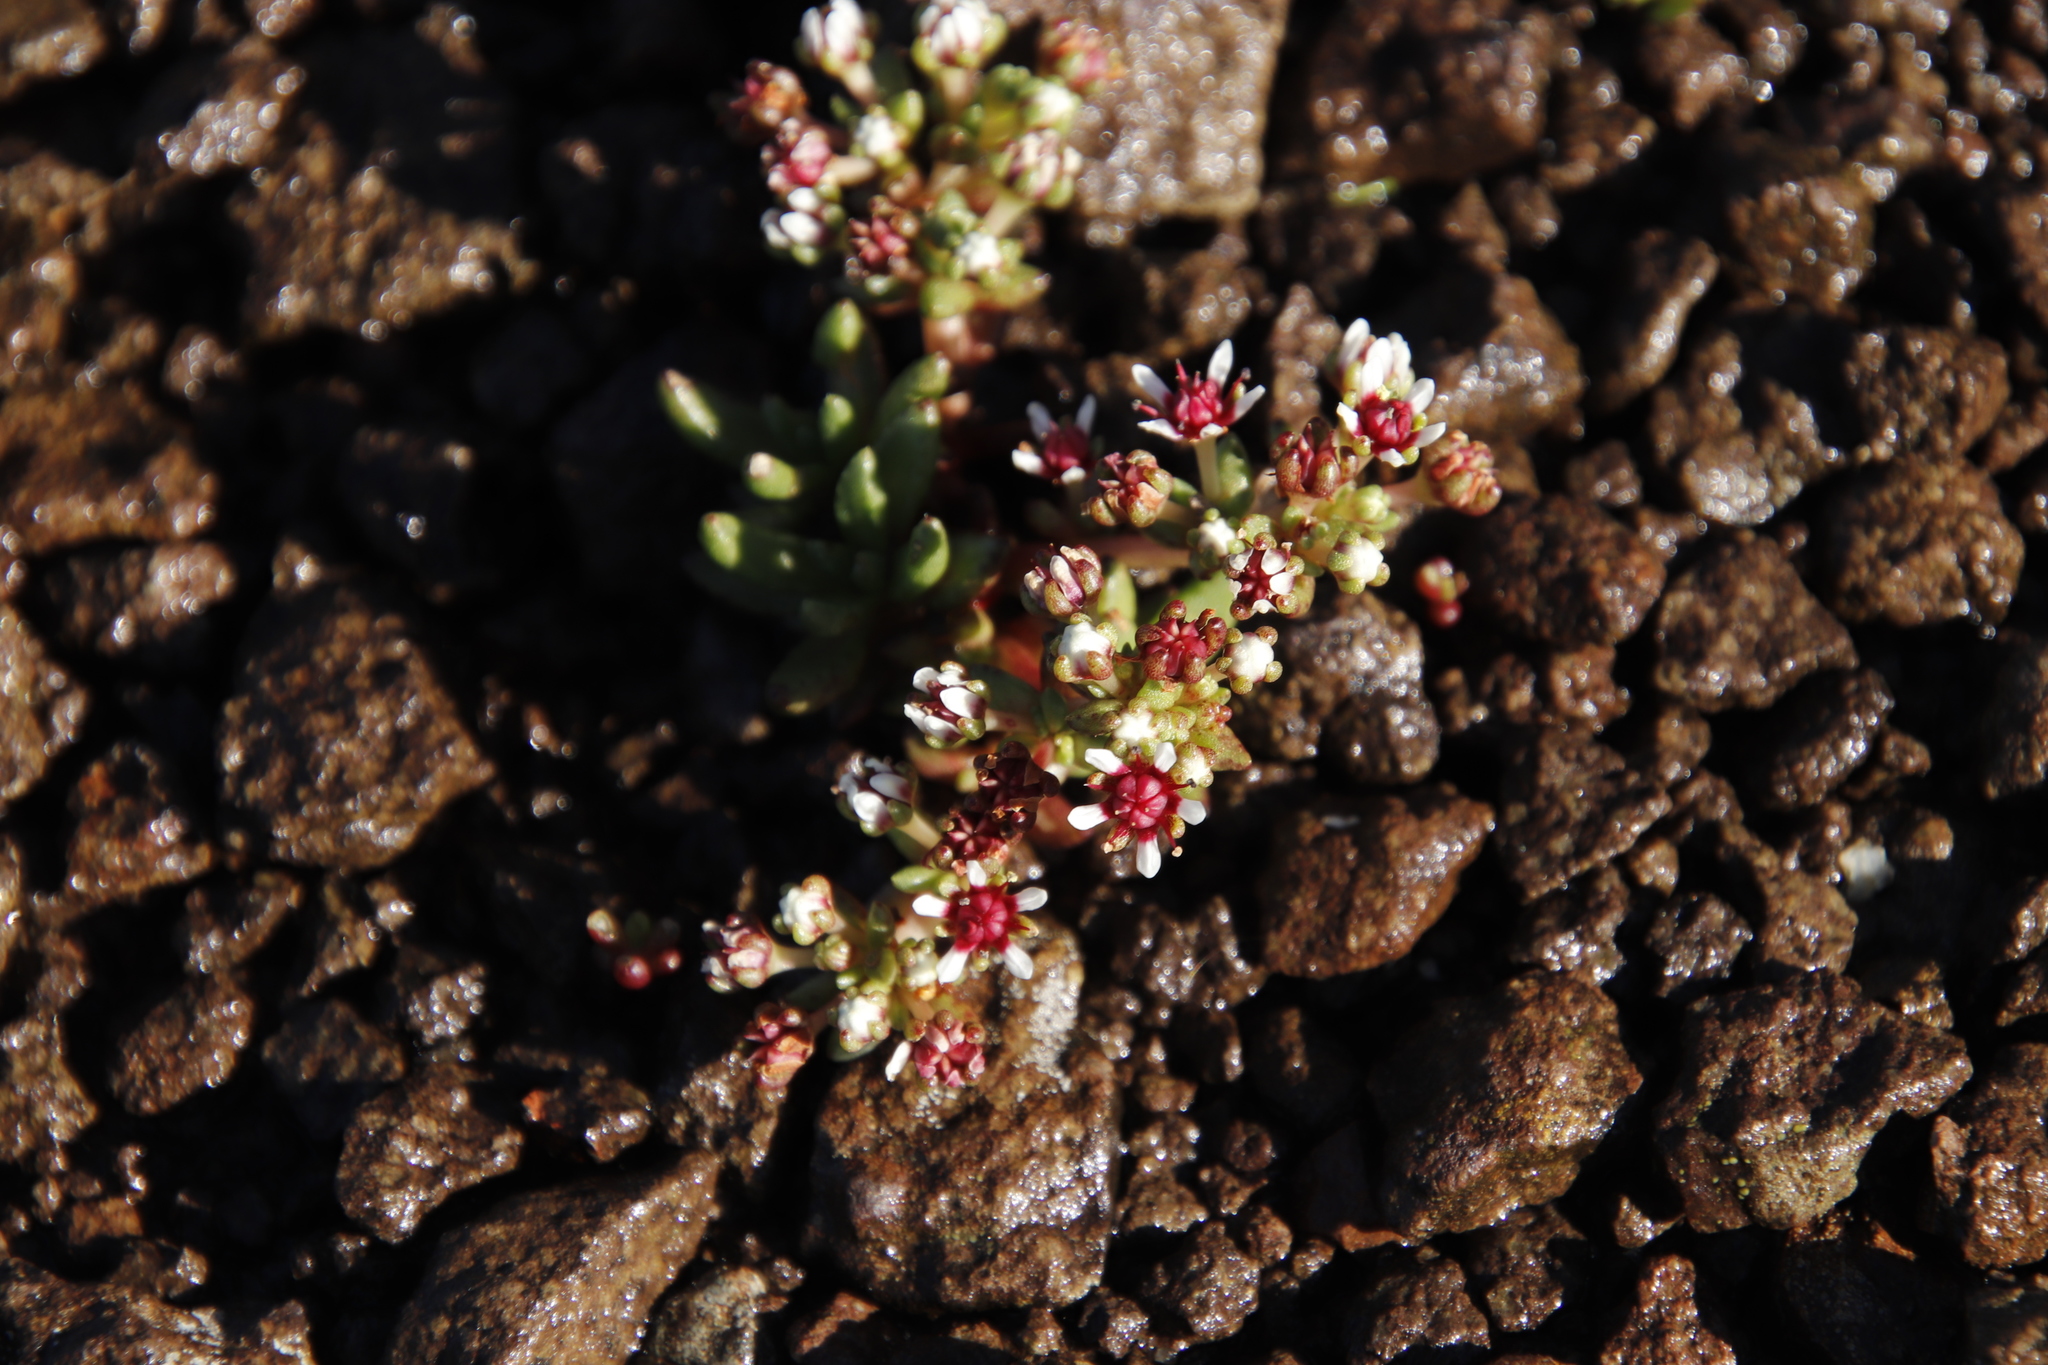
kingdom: Plantae
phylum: Tracheophyta
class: Magnoliopsida
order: Saxifragales
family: Crassulaceae
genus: Crassula
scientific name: Crassula peploides
